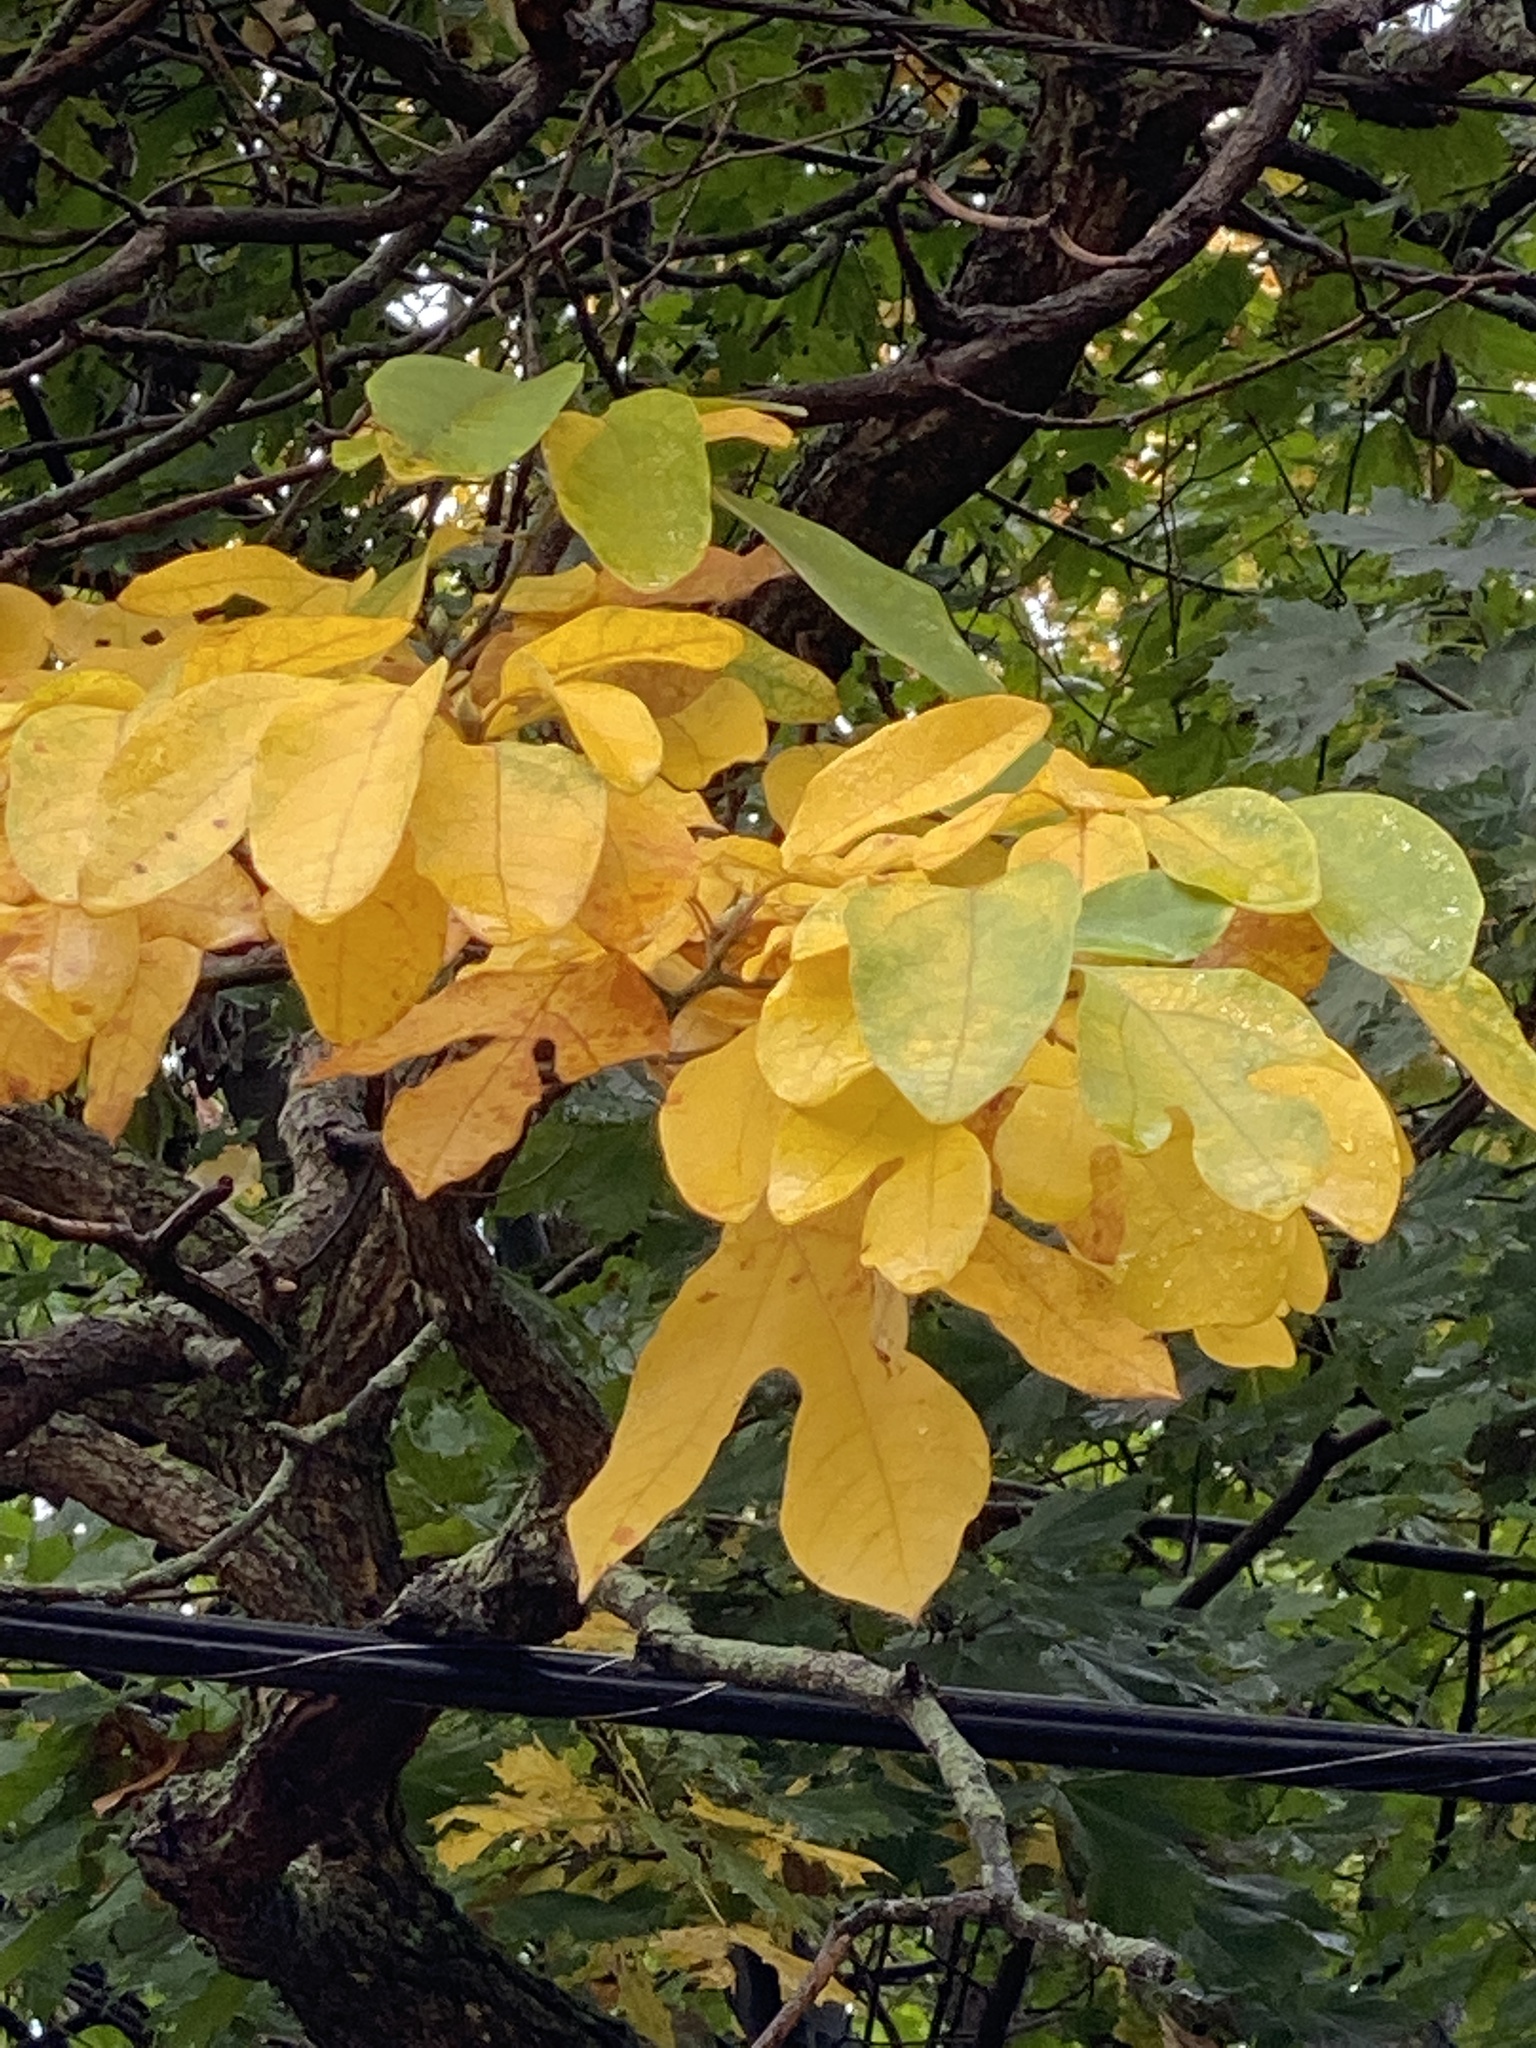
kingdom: Plantae
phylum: Tracheophyta
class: Magnoliopsida
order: Laurales
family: Lauraceae
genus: Sassafras
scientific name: Sassafras albidum
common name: Sassafras
